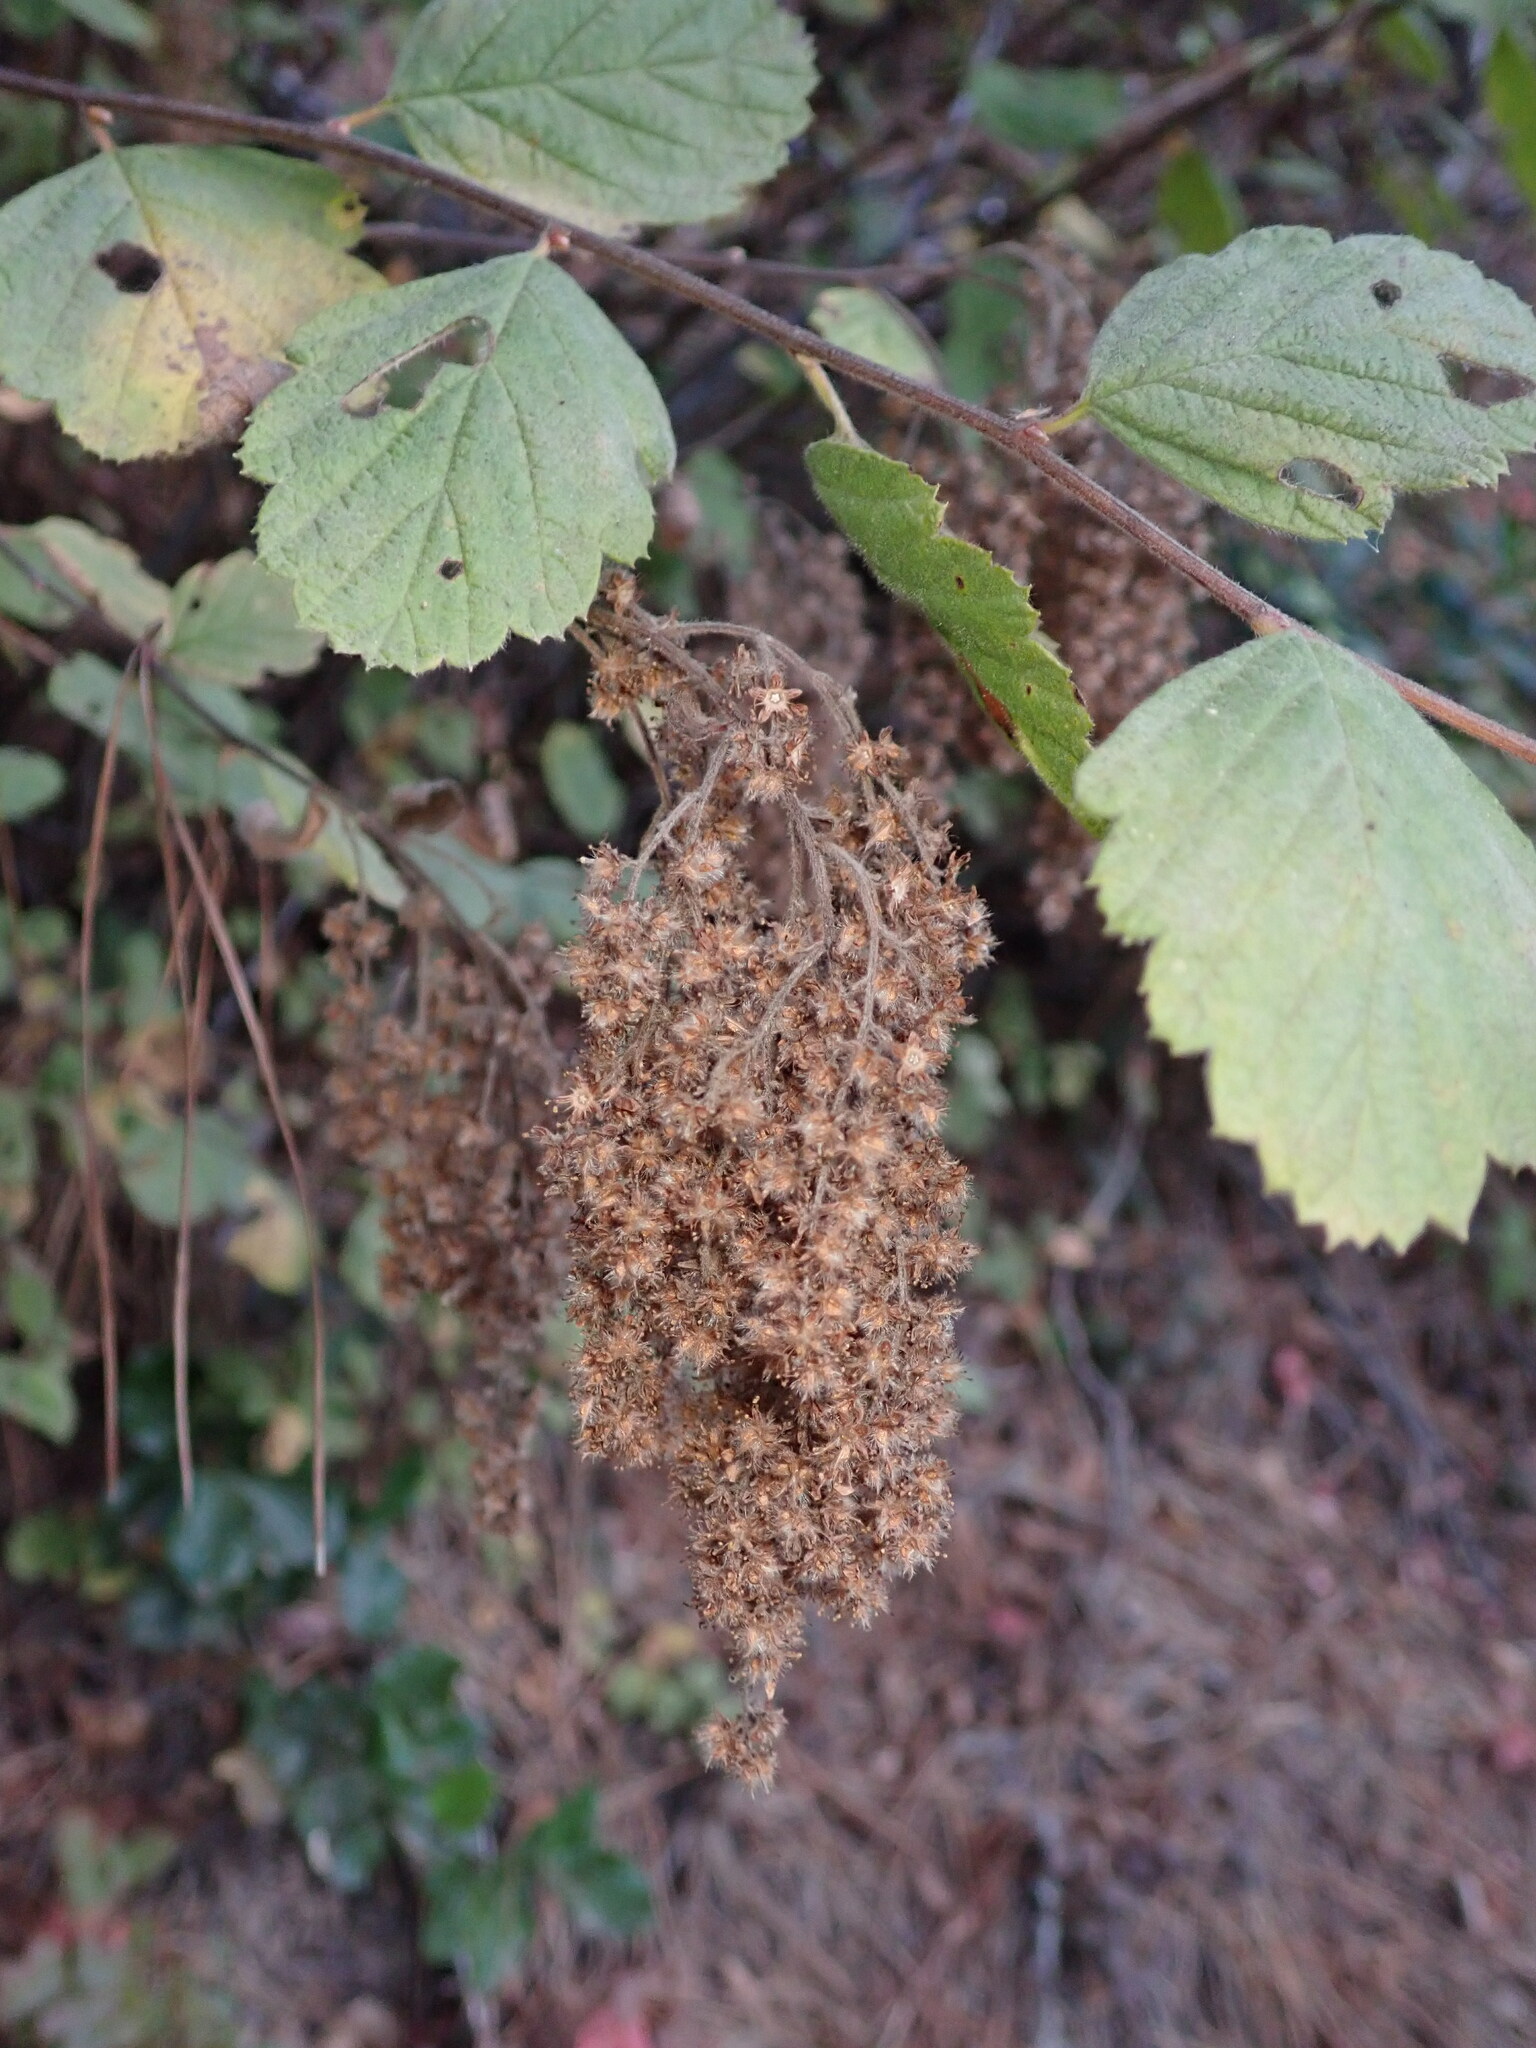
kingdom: Plantae
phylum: Tracheophyta
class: Magnoliopsida
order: Rosales
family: Rosaceae
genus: Holodiscus
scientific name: Holodiscus discolor
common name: Oceanspray
